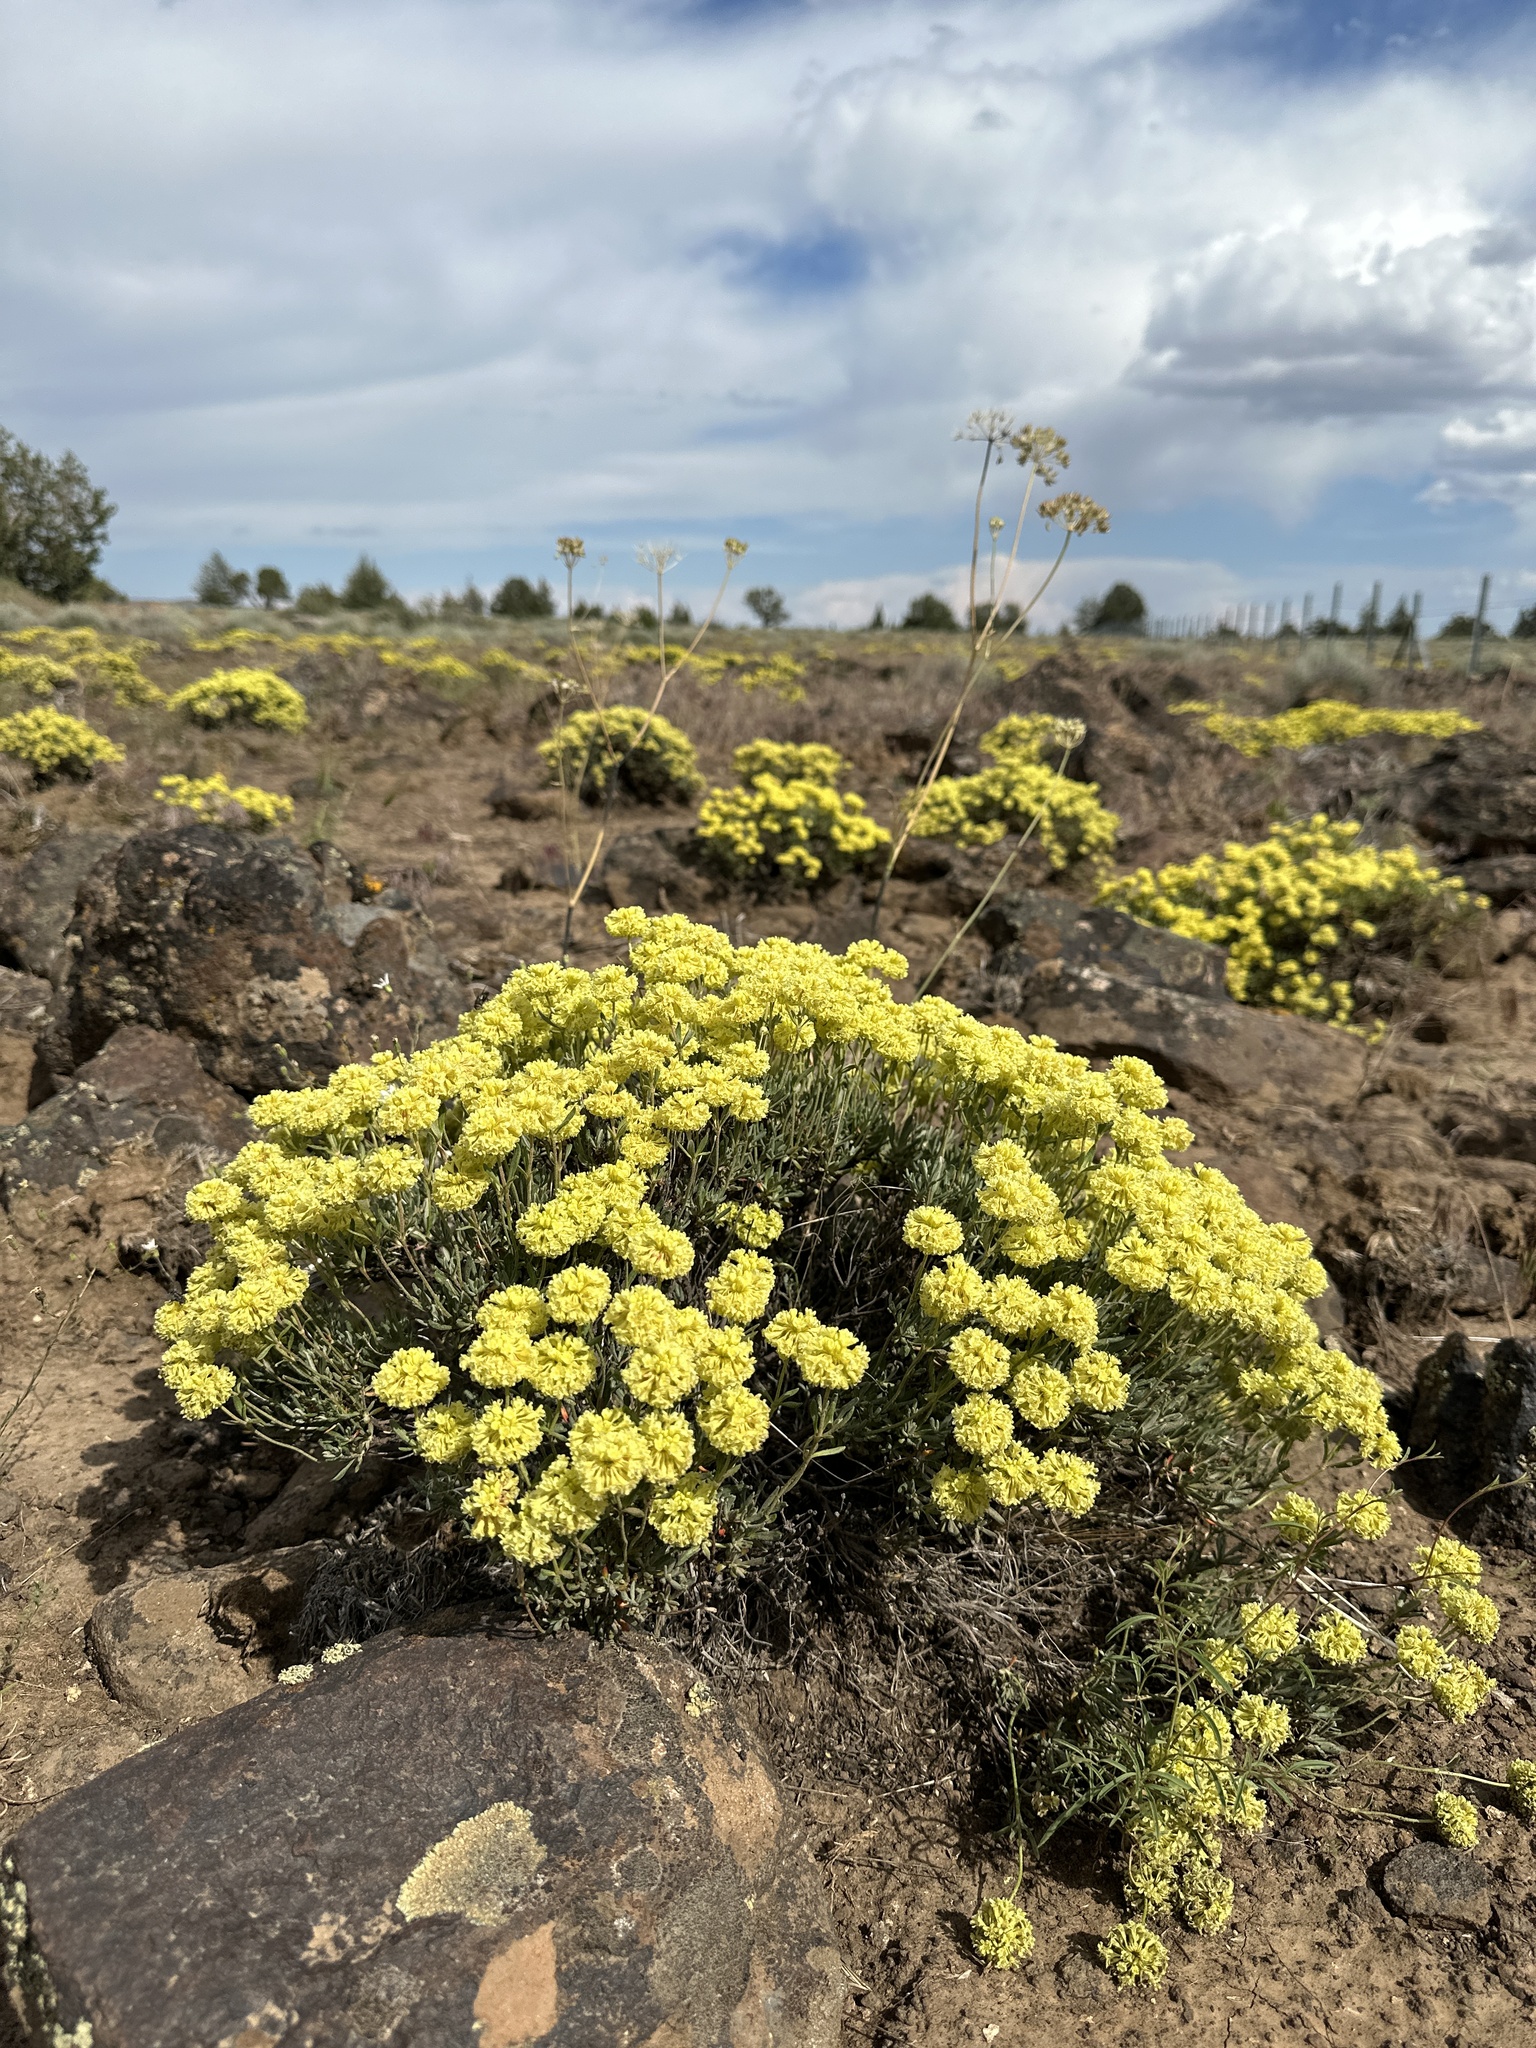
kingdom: Plantae
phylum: Tracheophyta
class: Magnoliopsida
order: Caryophyllales
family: Polygonaceae
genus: Eriogonum
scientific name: Eriogonum sphaerocephalum
